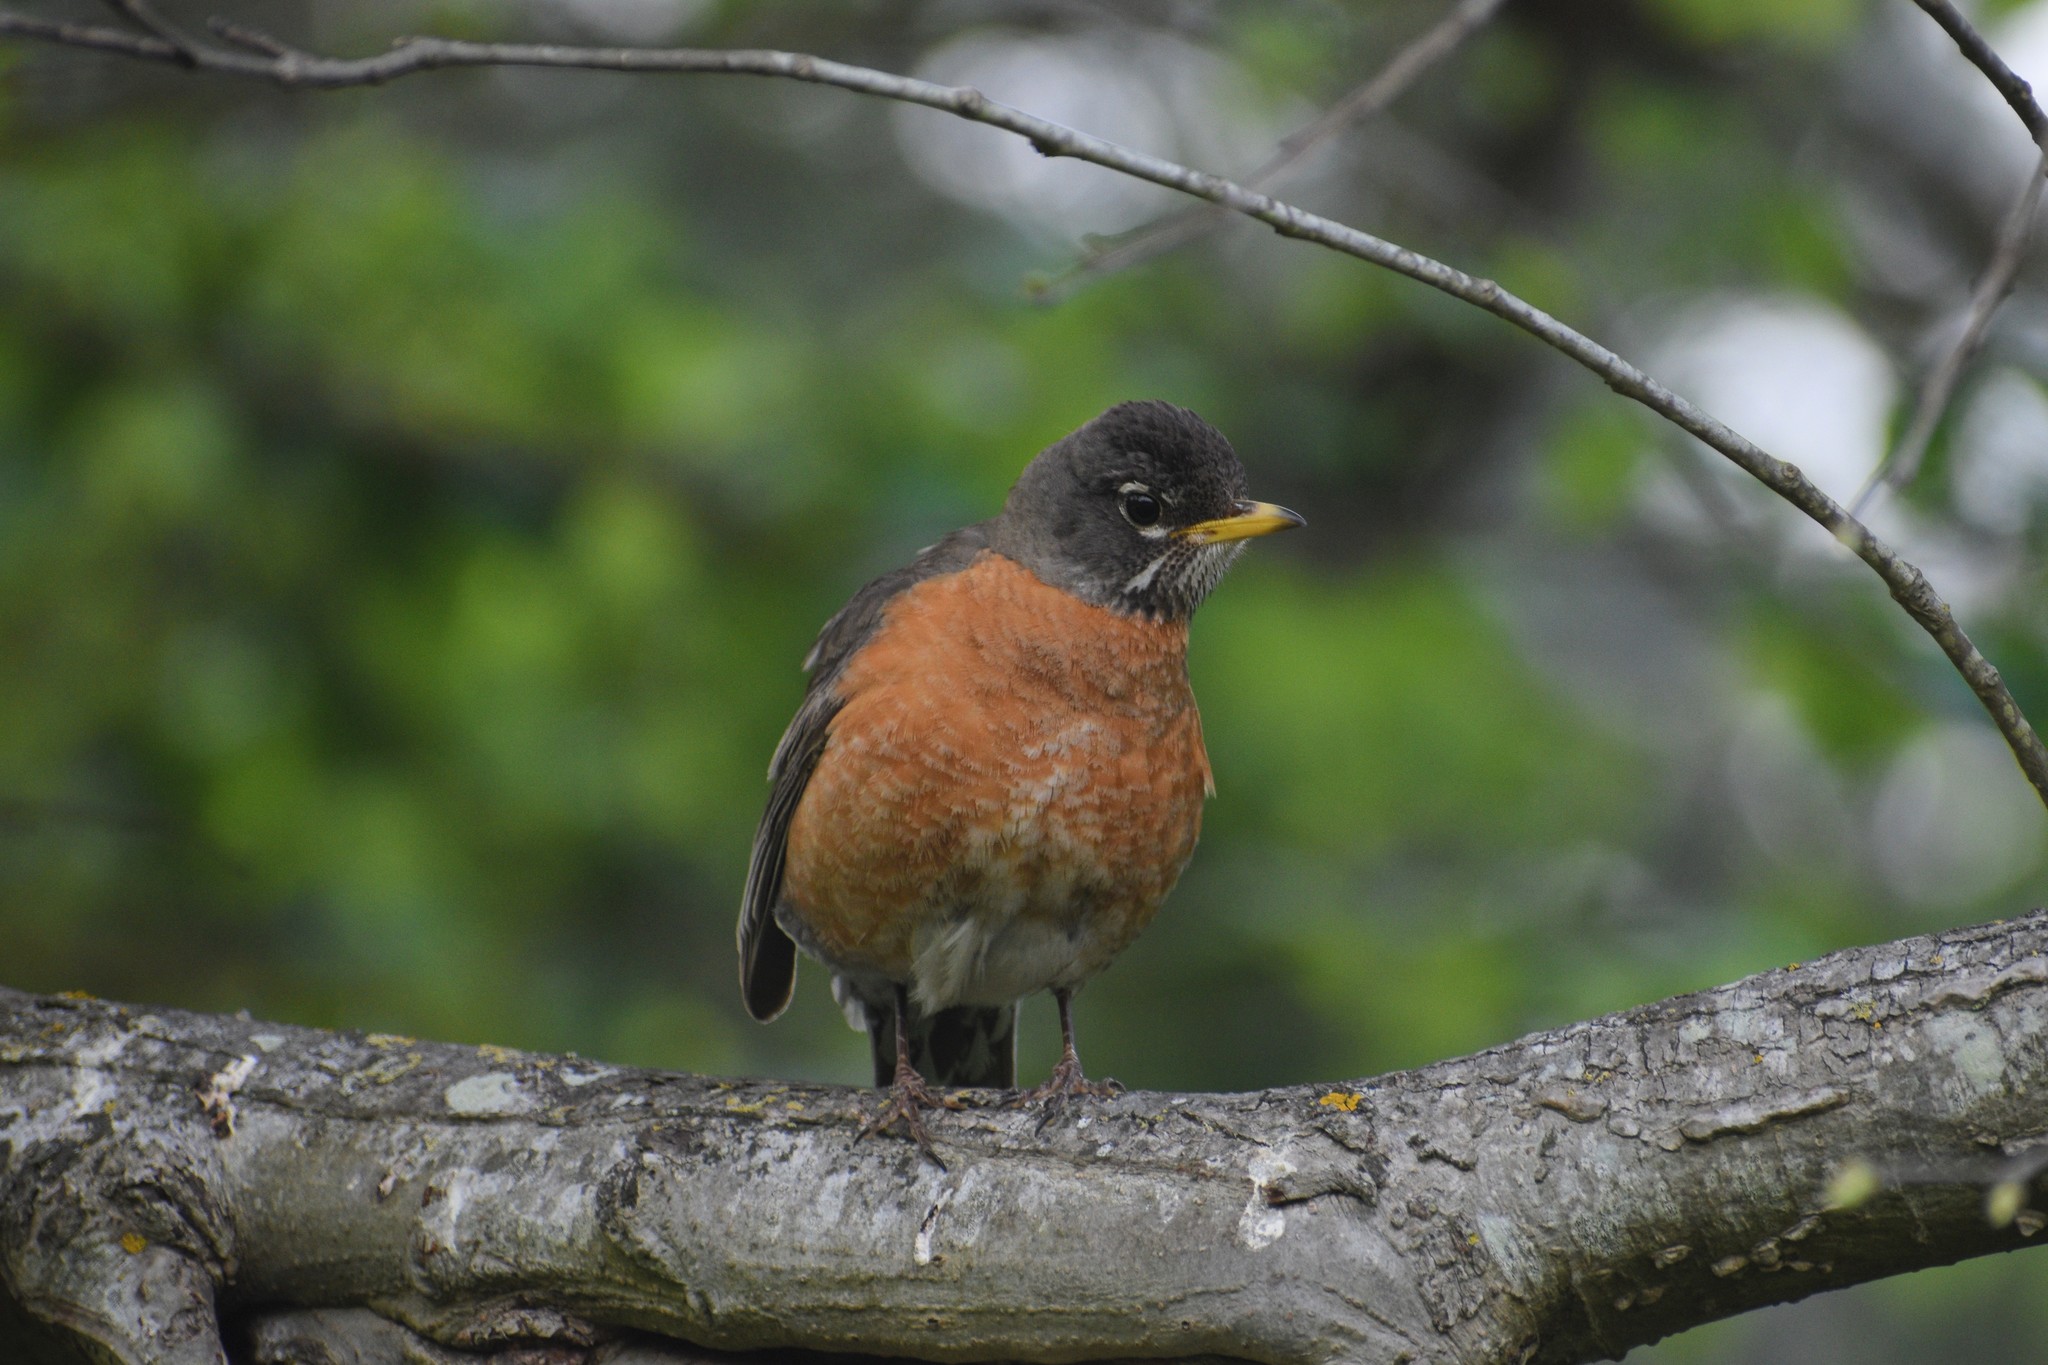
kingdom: Animalia
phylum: Chordata
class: Aves
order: Passeriformes
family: Turdidae
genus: Turdus
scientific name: Turdus migratorius
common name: American robin
